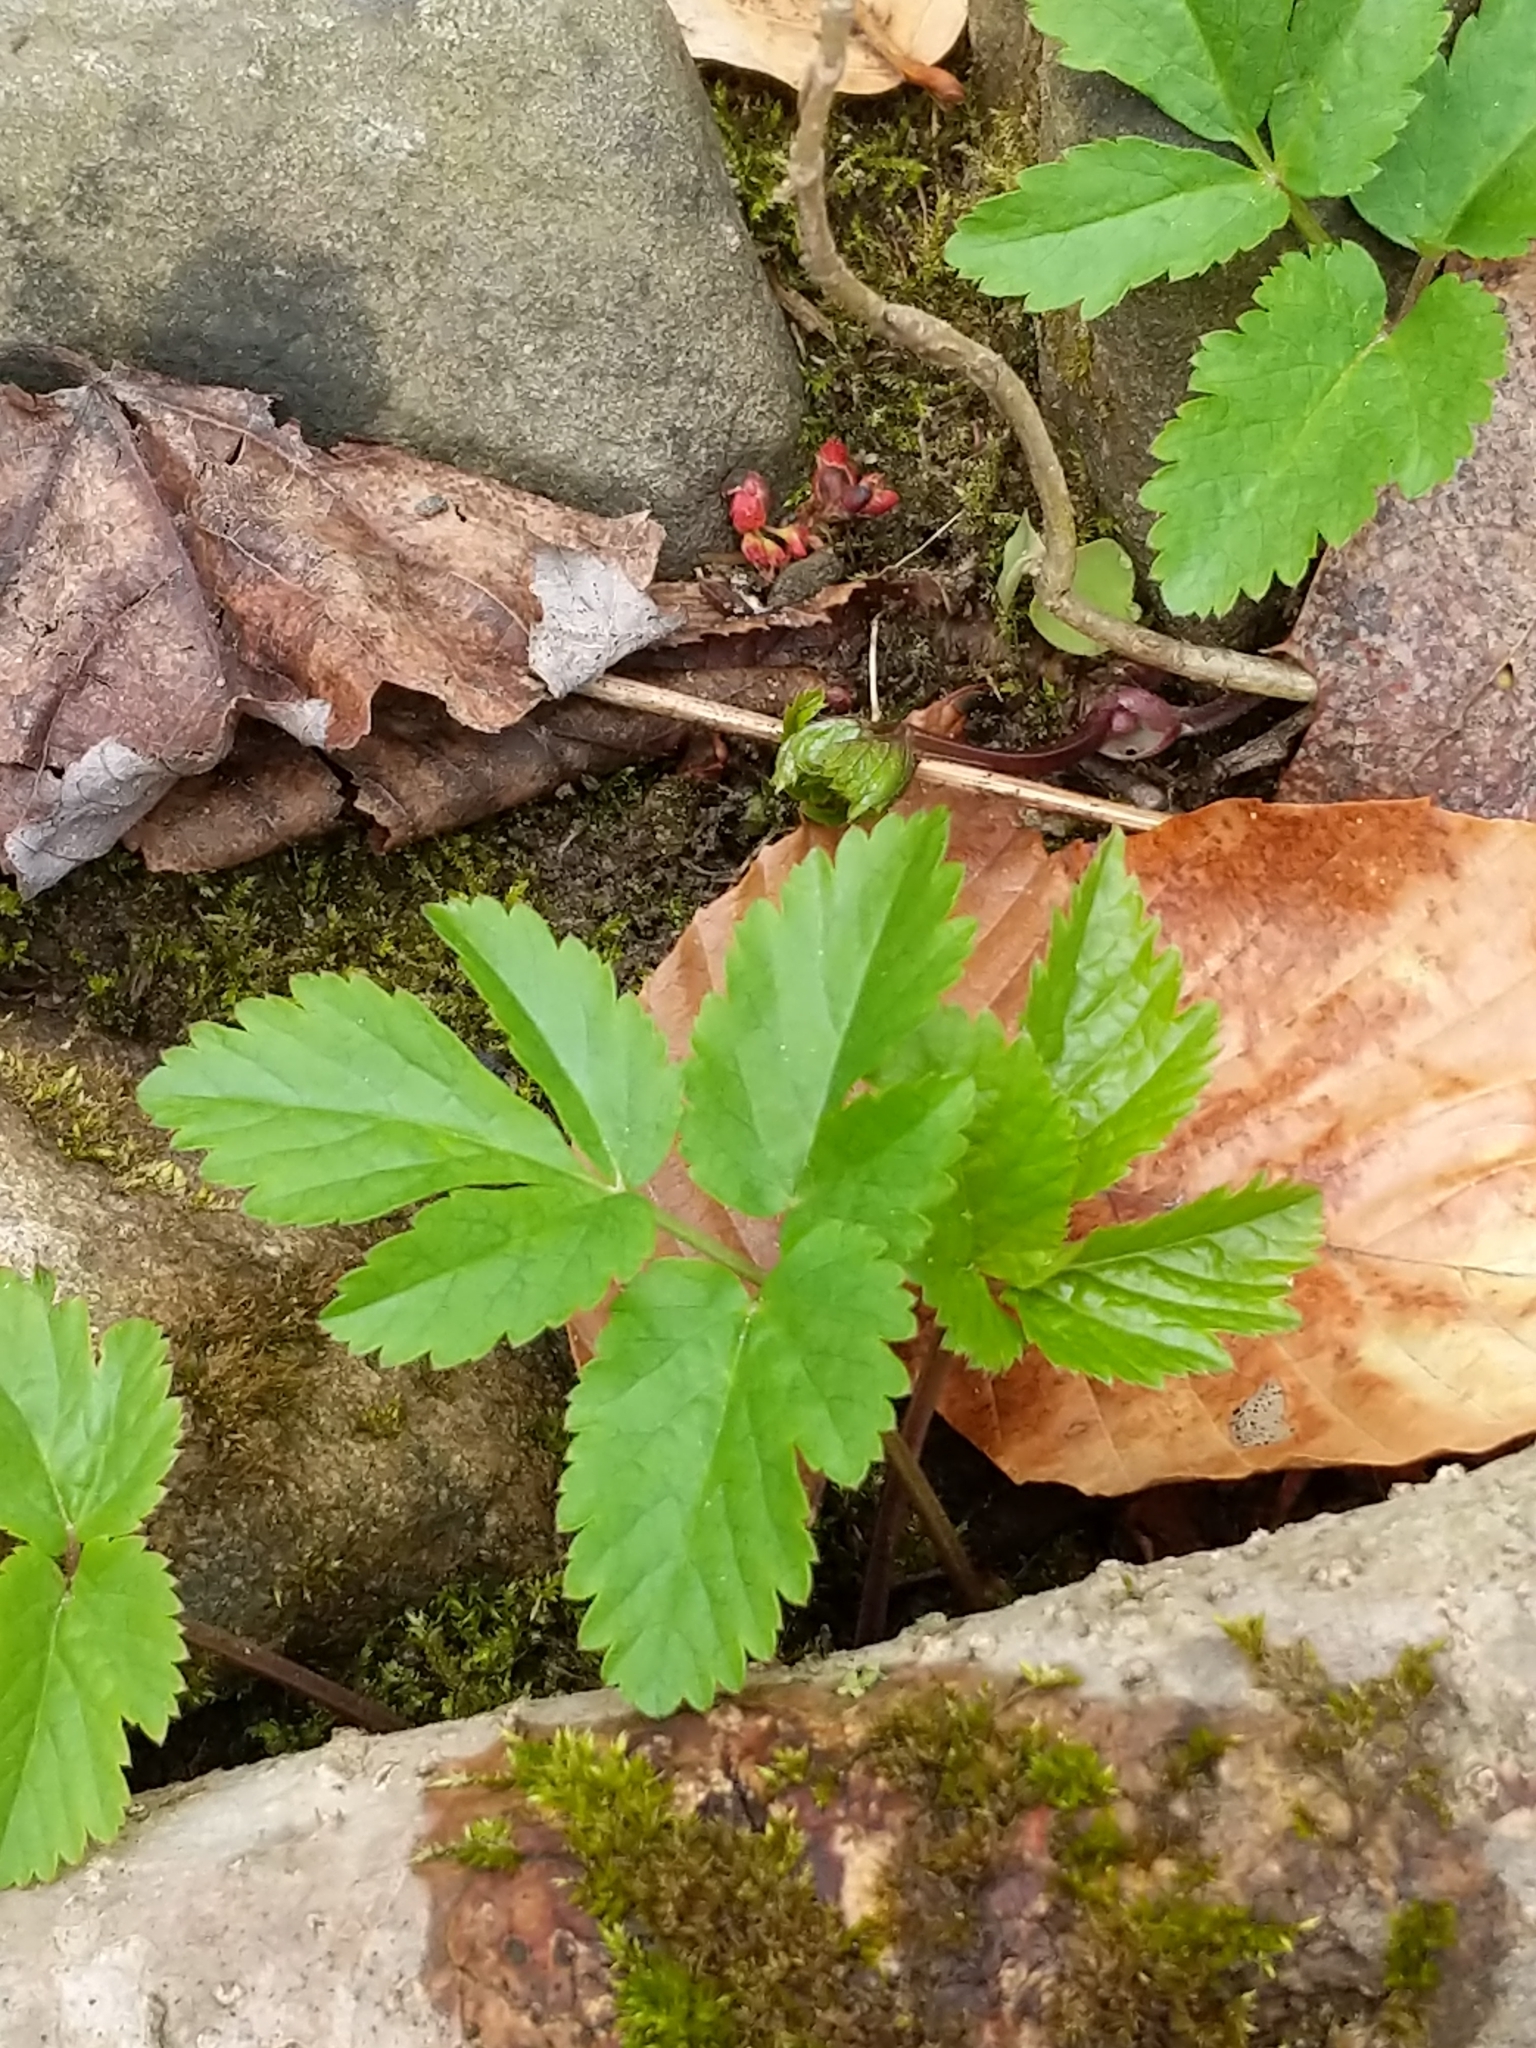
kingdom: Plantae
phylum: Tracheophyta
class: Magnoliopsida
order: Apiales
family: Apiaceae
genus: Aegopodium
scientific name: Aegopodium podagraria
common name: Ground-elder
